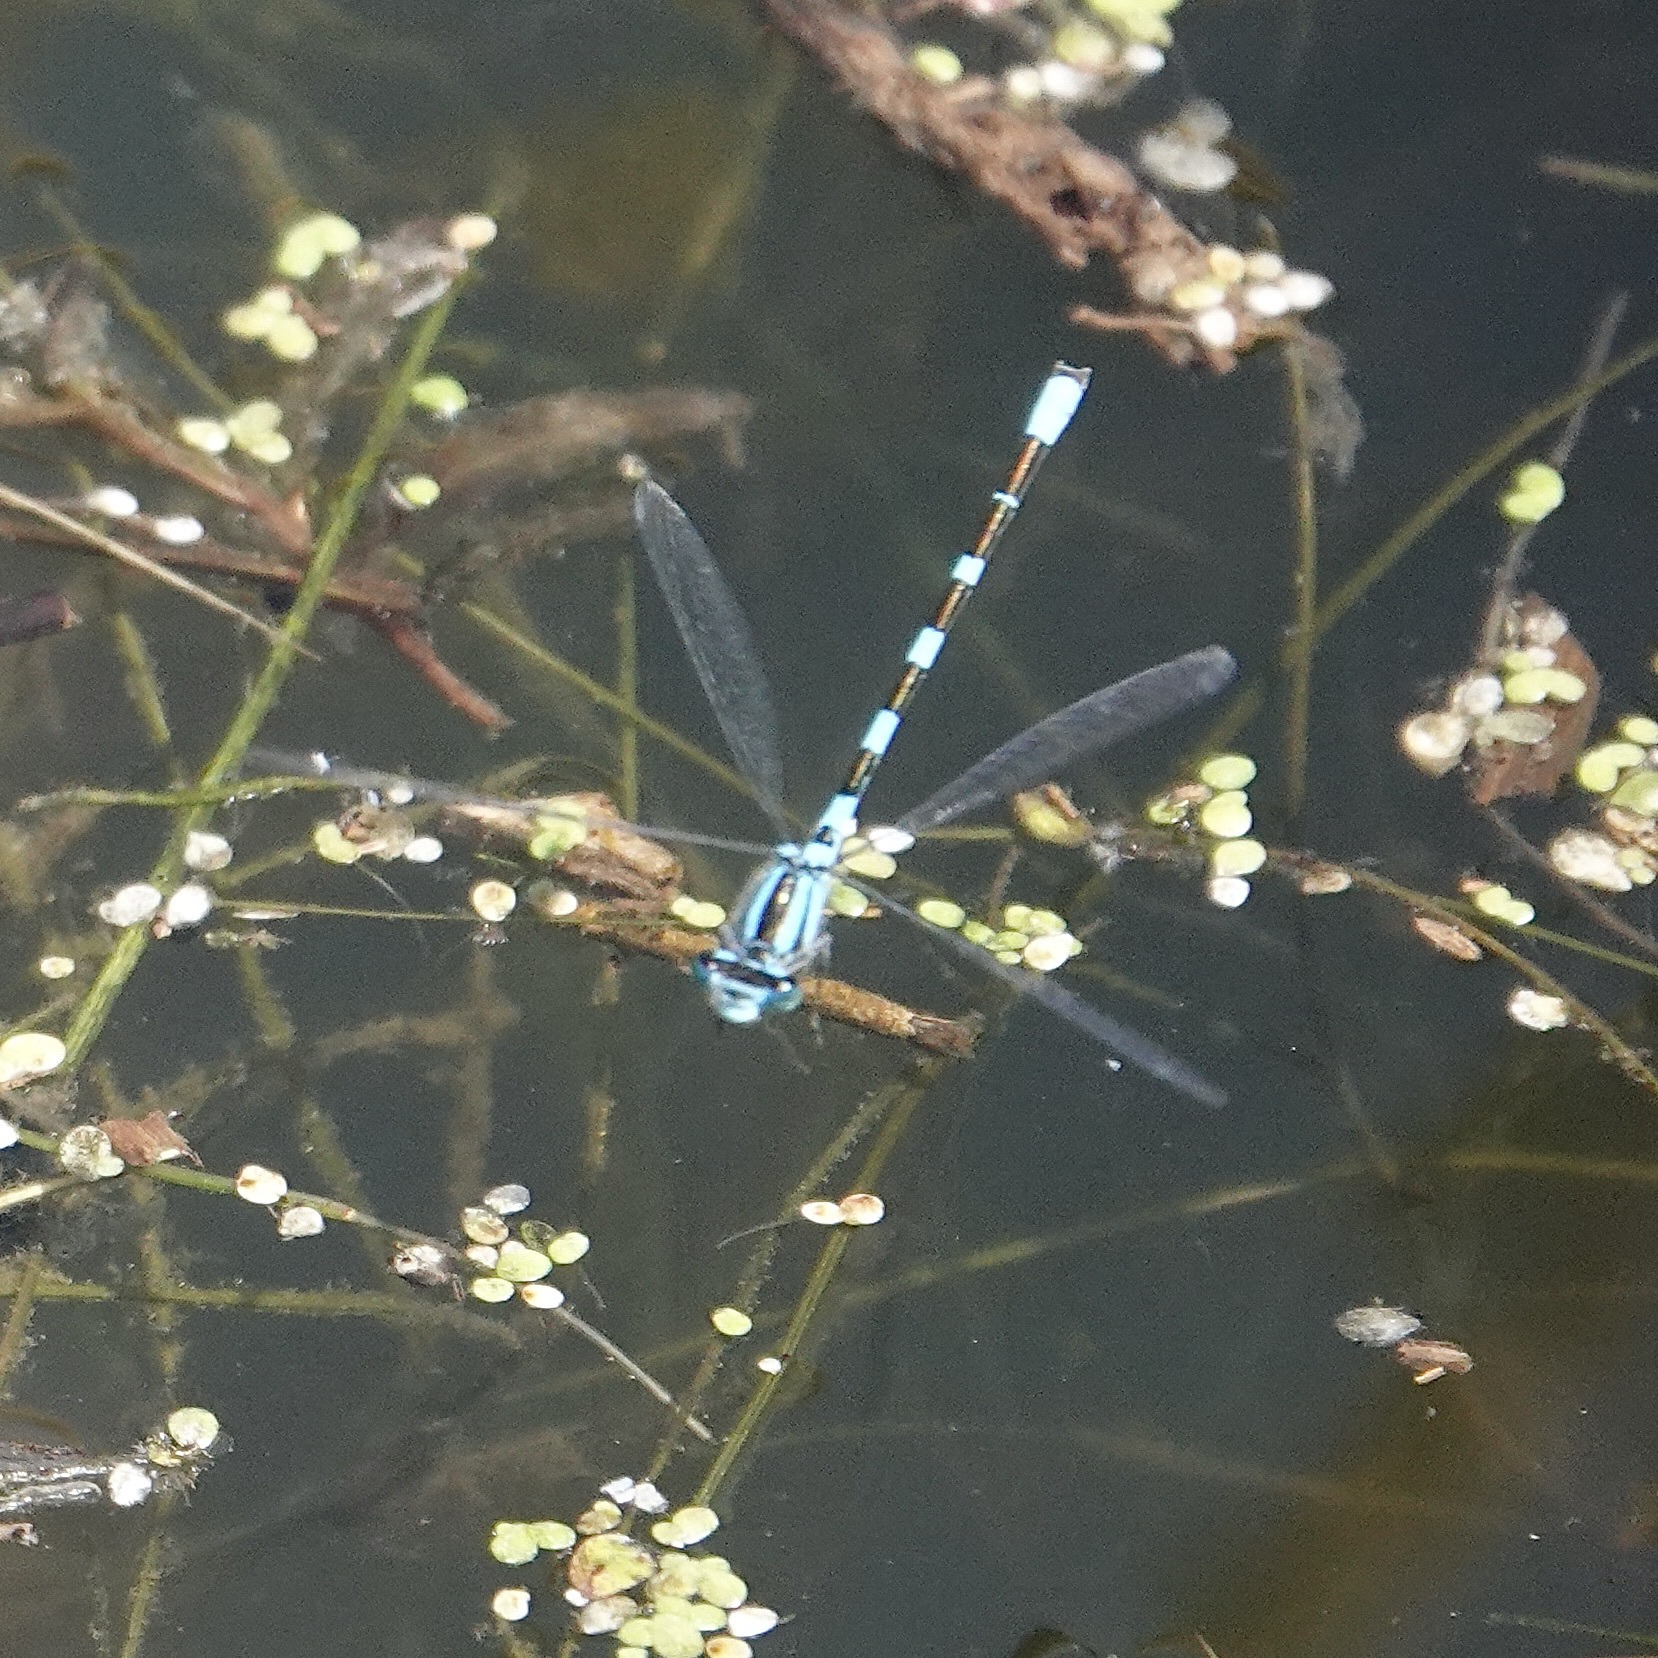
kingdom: Animalia
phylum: Arthropoda
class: Insecta
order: Odonata
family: Coenagrionidae
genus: Enallagma
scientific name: Enallagma carunculatum
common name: Tule bluet
